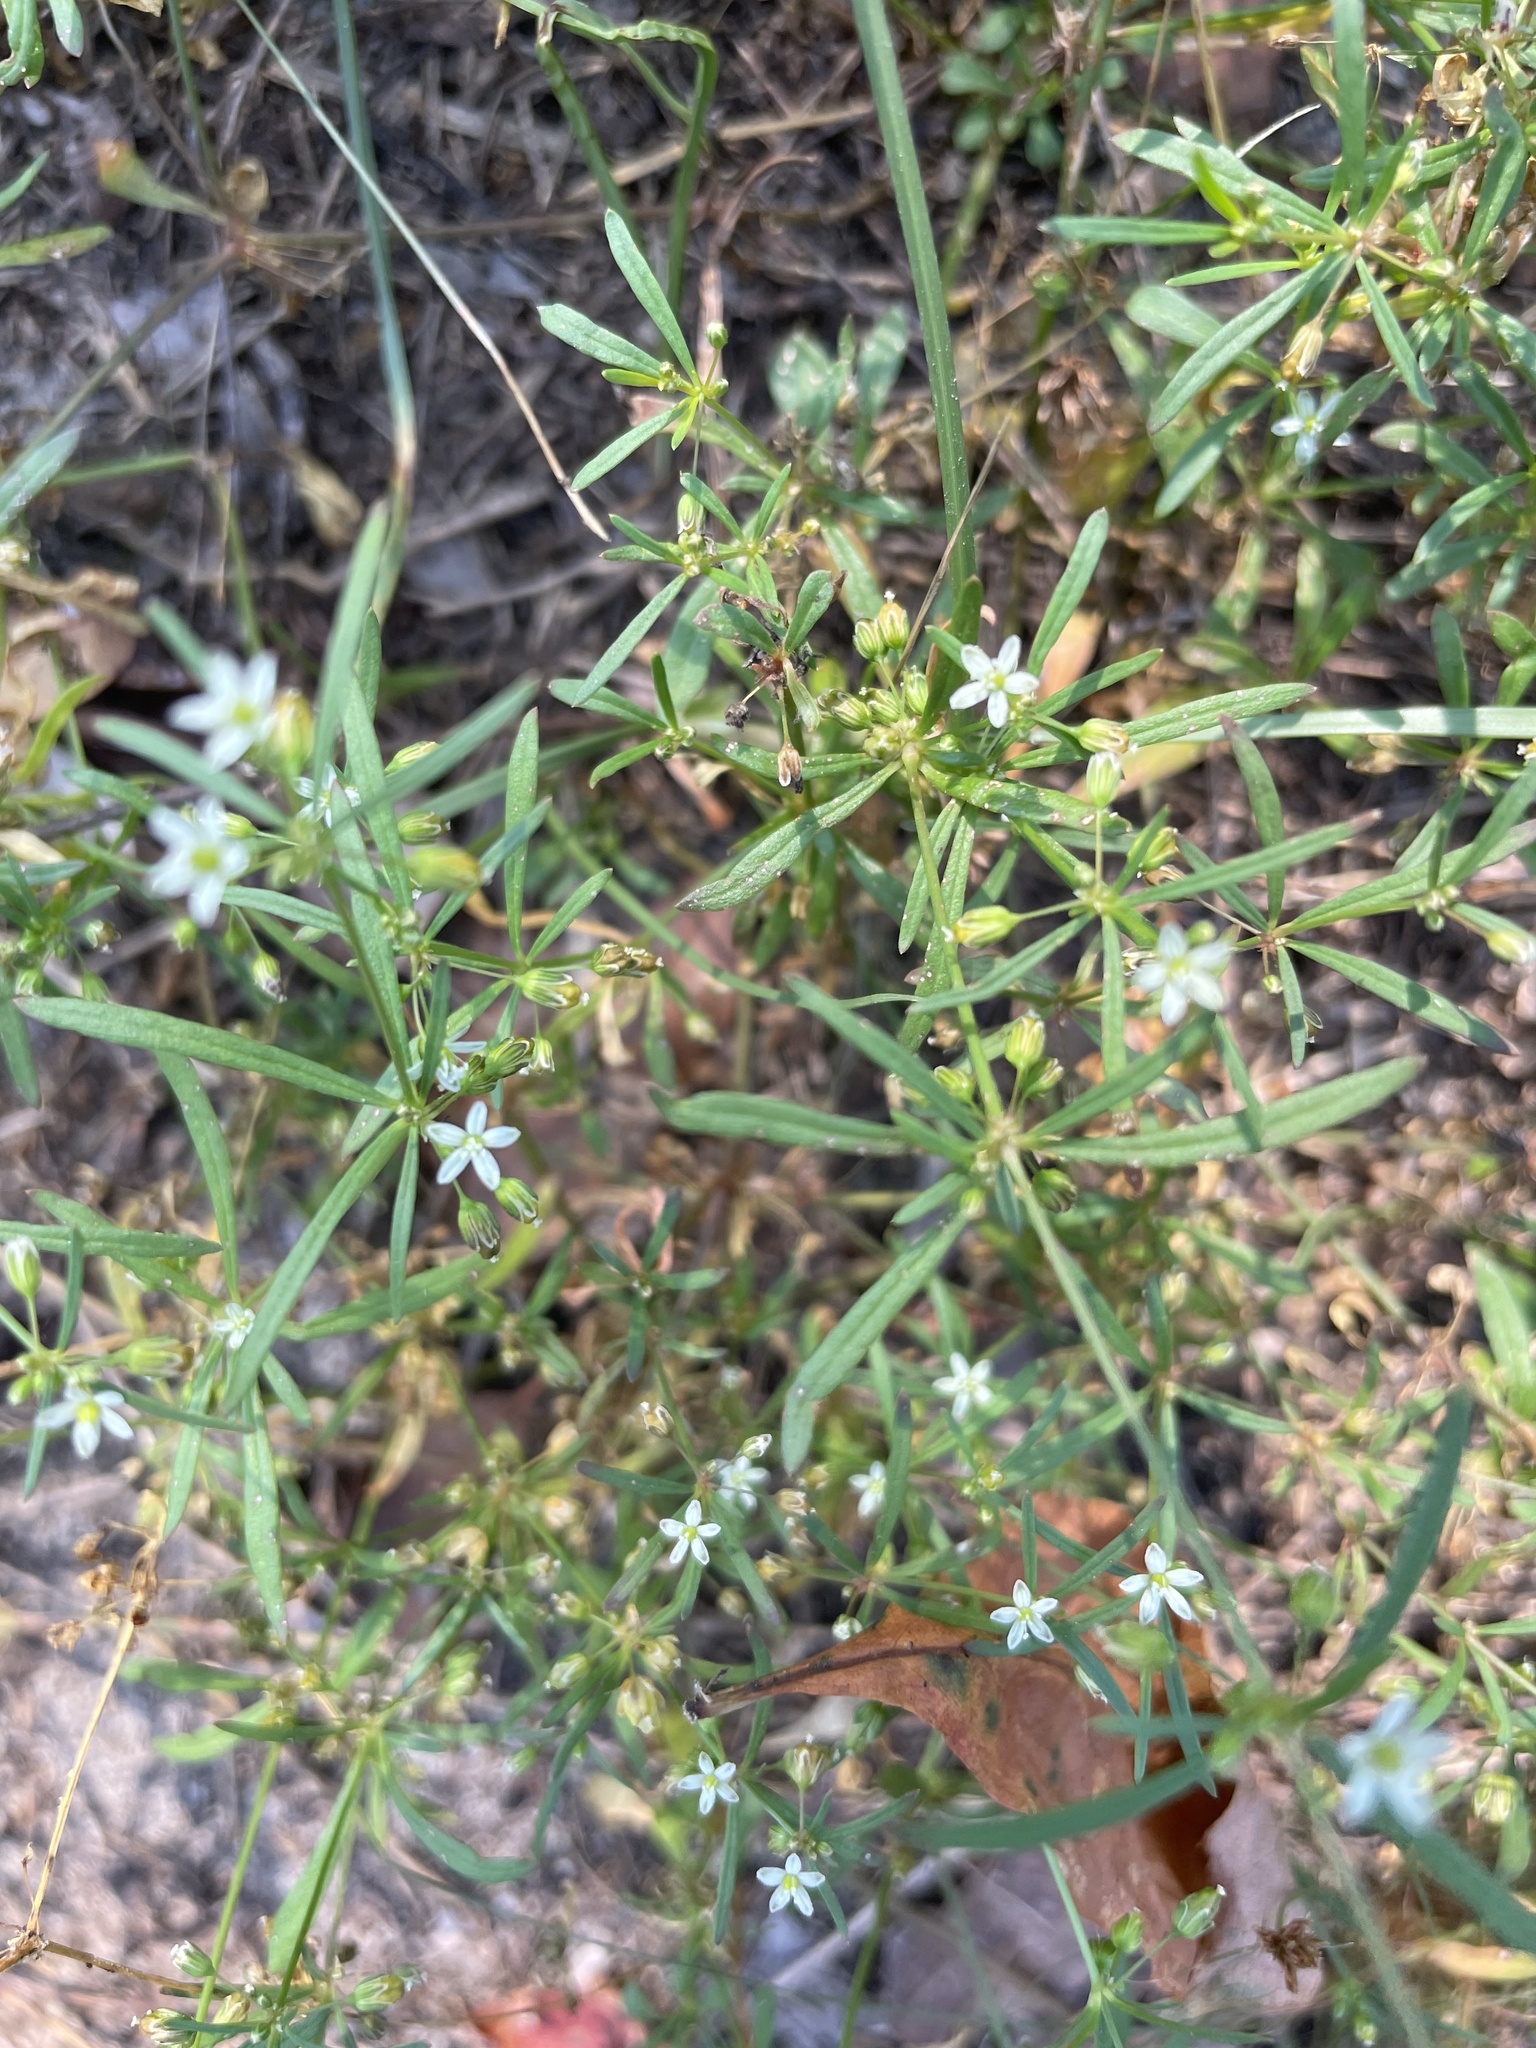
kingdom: Plantae
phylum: Tracheophyta
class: Magnoliopsida
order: Caryophyllales
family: Molluginaceae
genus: Mollugo
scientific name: Mollugo verticillata
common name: Green carpetweed
